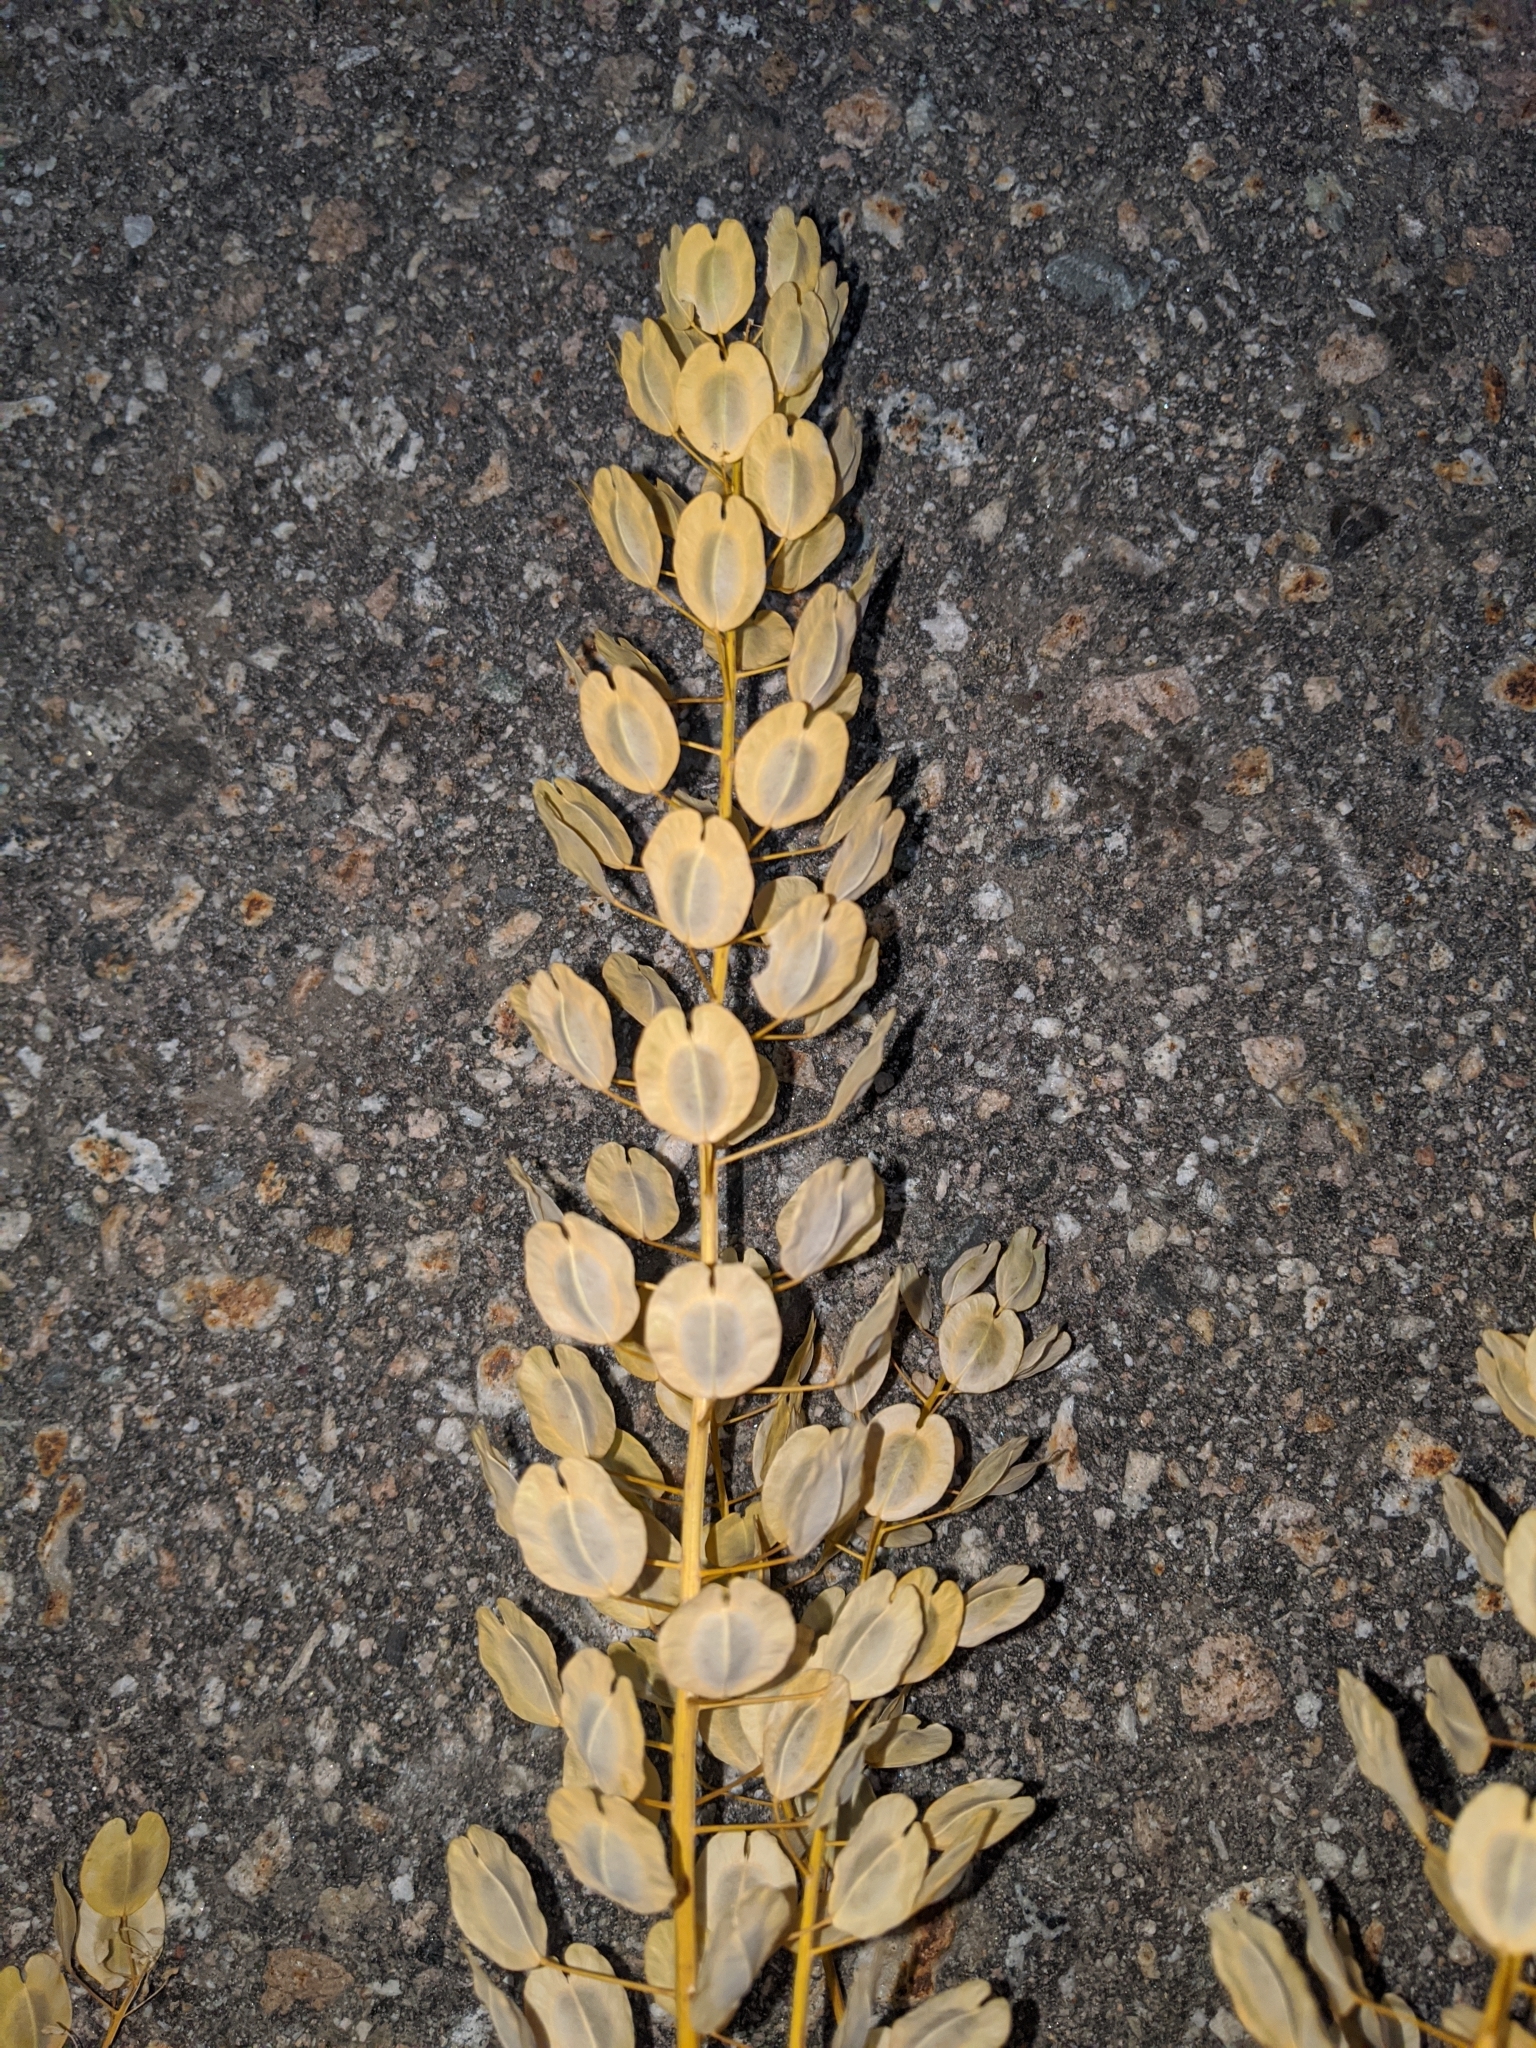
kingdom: Plantae
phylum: Tracheophyta
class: Magnoliopsida
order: Brassicales
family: Brassicaceae
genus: Thlaspi
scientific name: Thlaspi arvense
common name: Field pennycress
